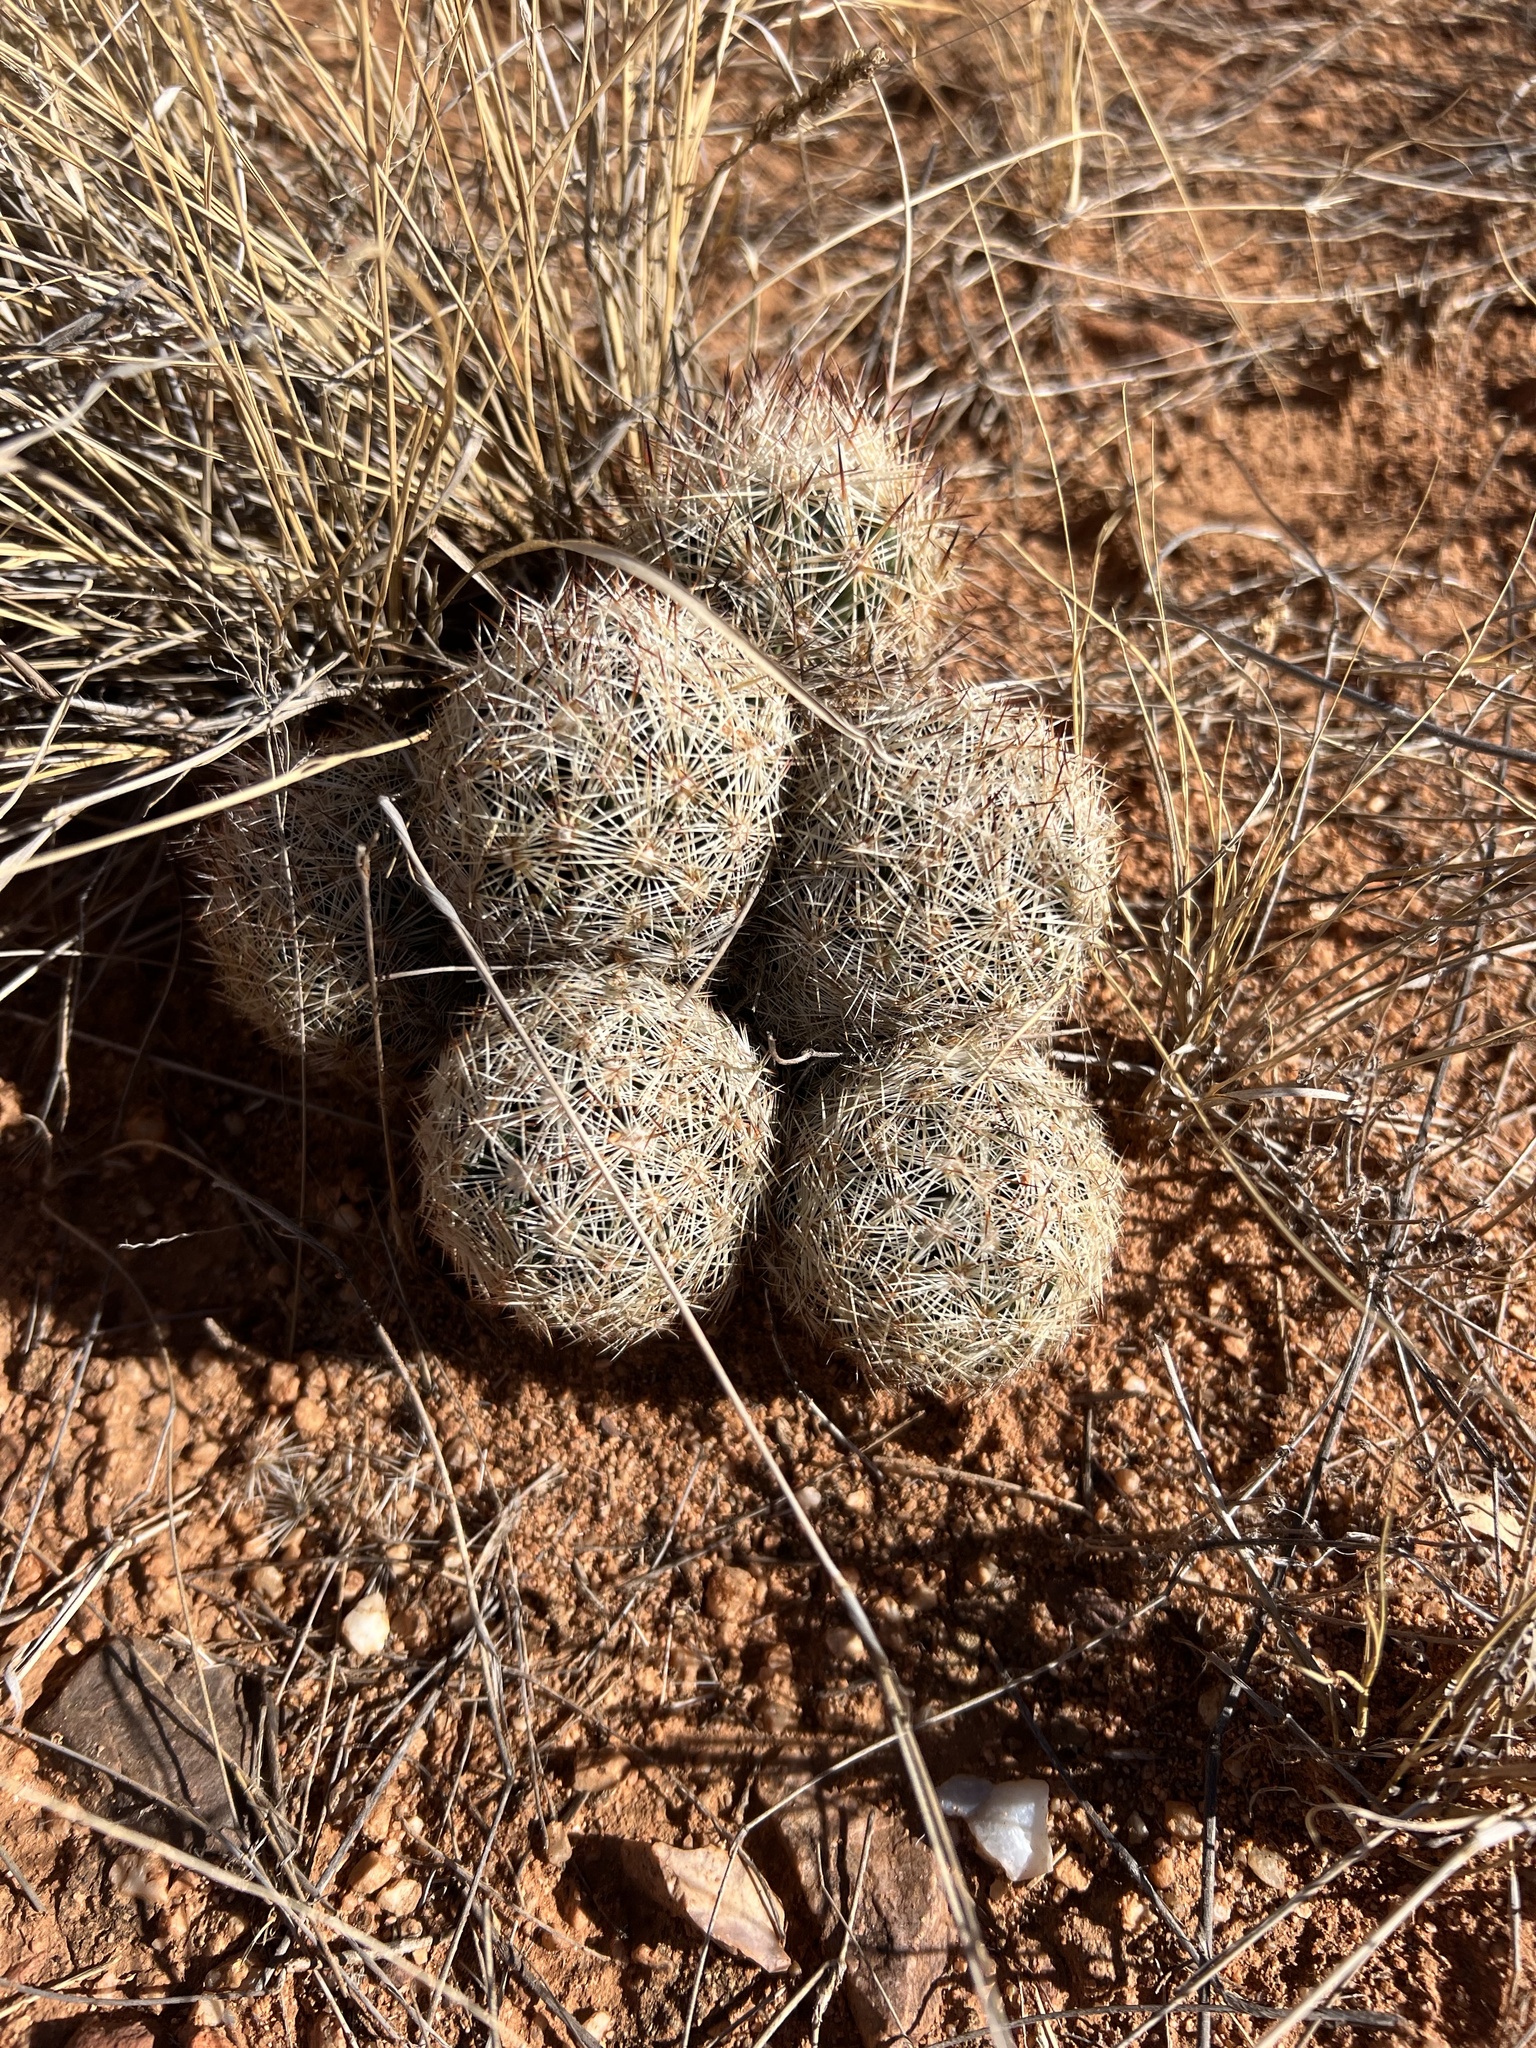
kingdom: Plantae
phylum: Tracheophyta
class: Magnoliopsida
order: Caryophyllales
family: Cactaceae
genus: Pelecyphora
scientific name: Pelecyphora vivipara
